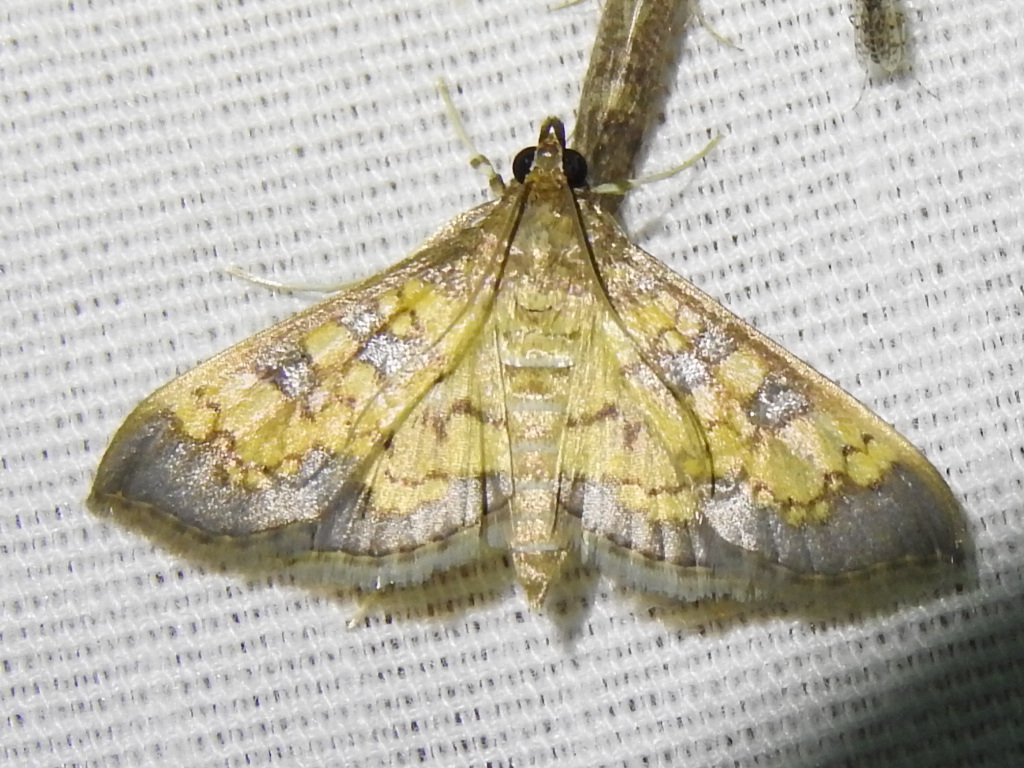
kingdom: Animalia
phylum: Arthropoda
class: Insecta
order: Lepidoptera
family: Crambidae
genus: Cryptographis
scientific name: Cryptographis elealis
